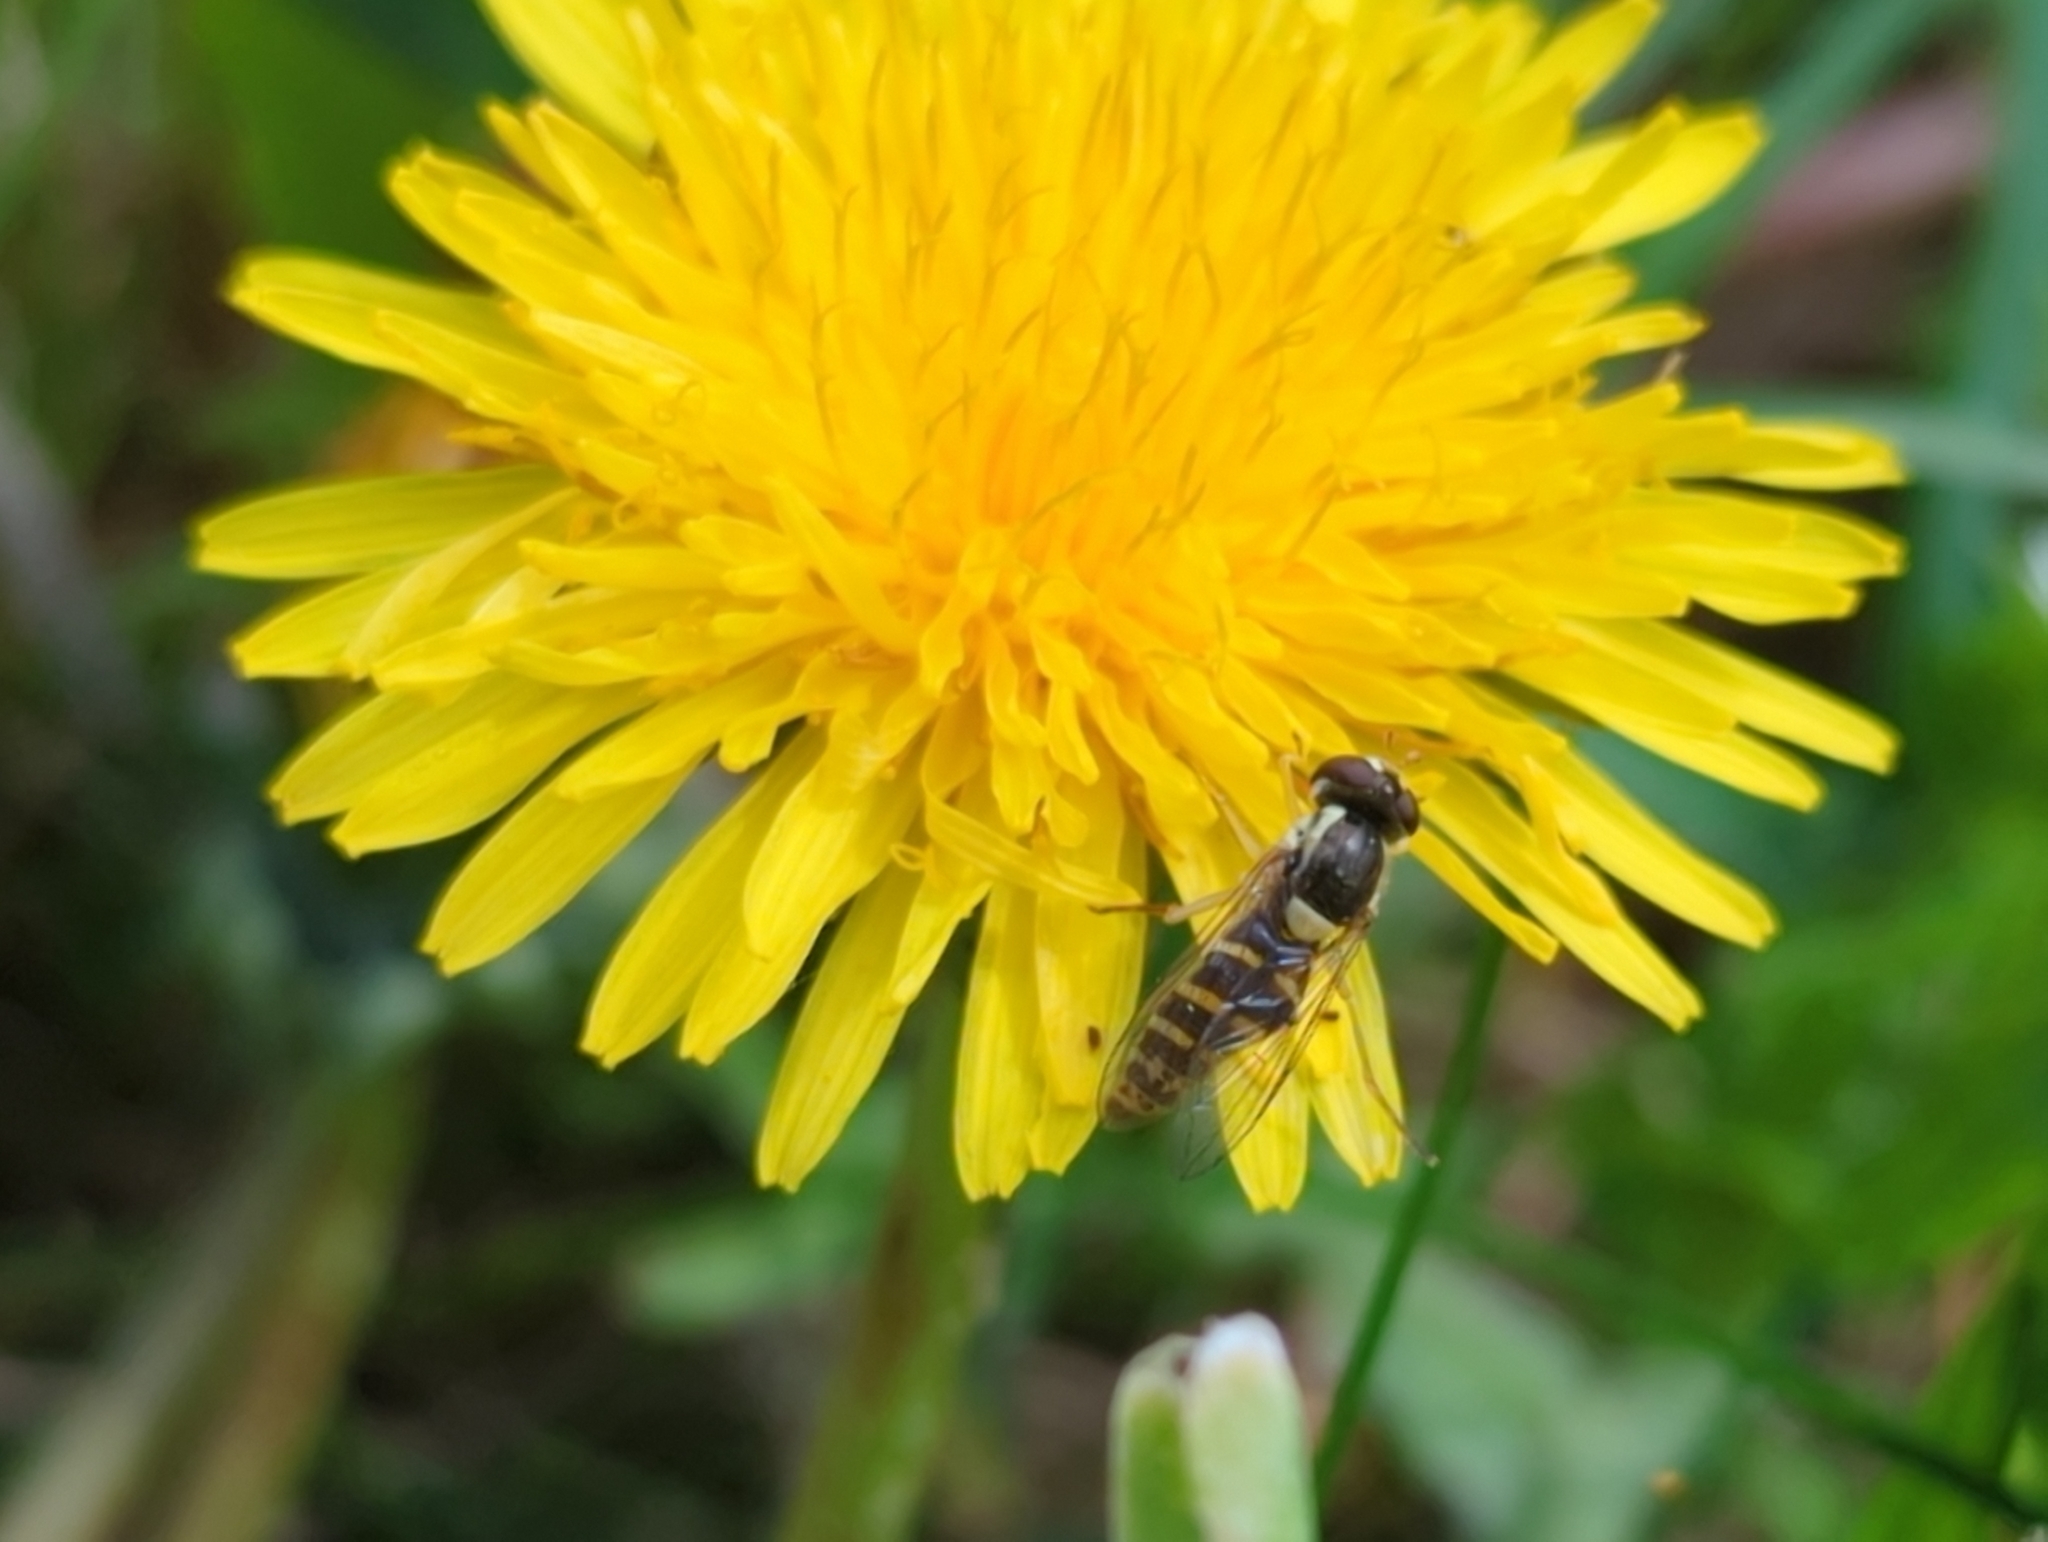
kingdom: Animalia
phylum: Arthropoda
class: Insecta
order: Diptera
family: Syrphidae
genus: Sphaerophoria
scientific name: Sphaerophoria
